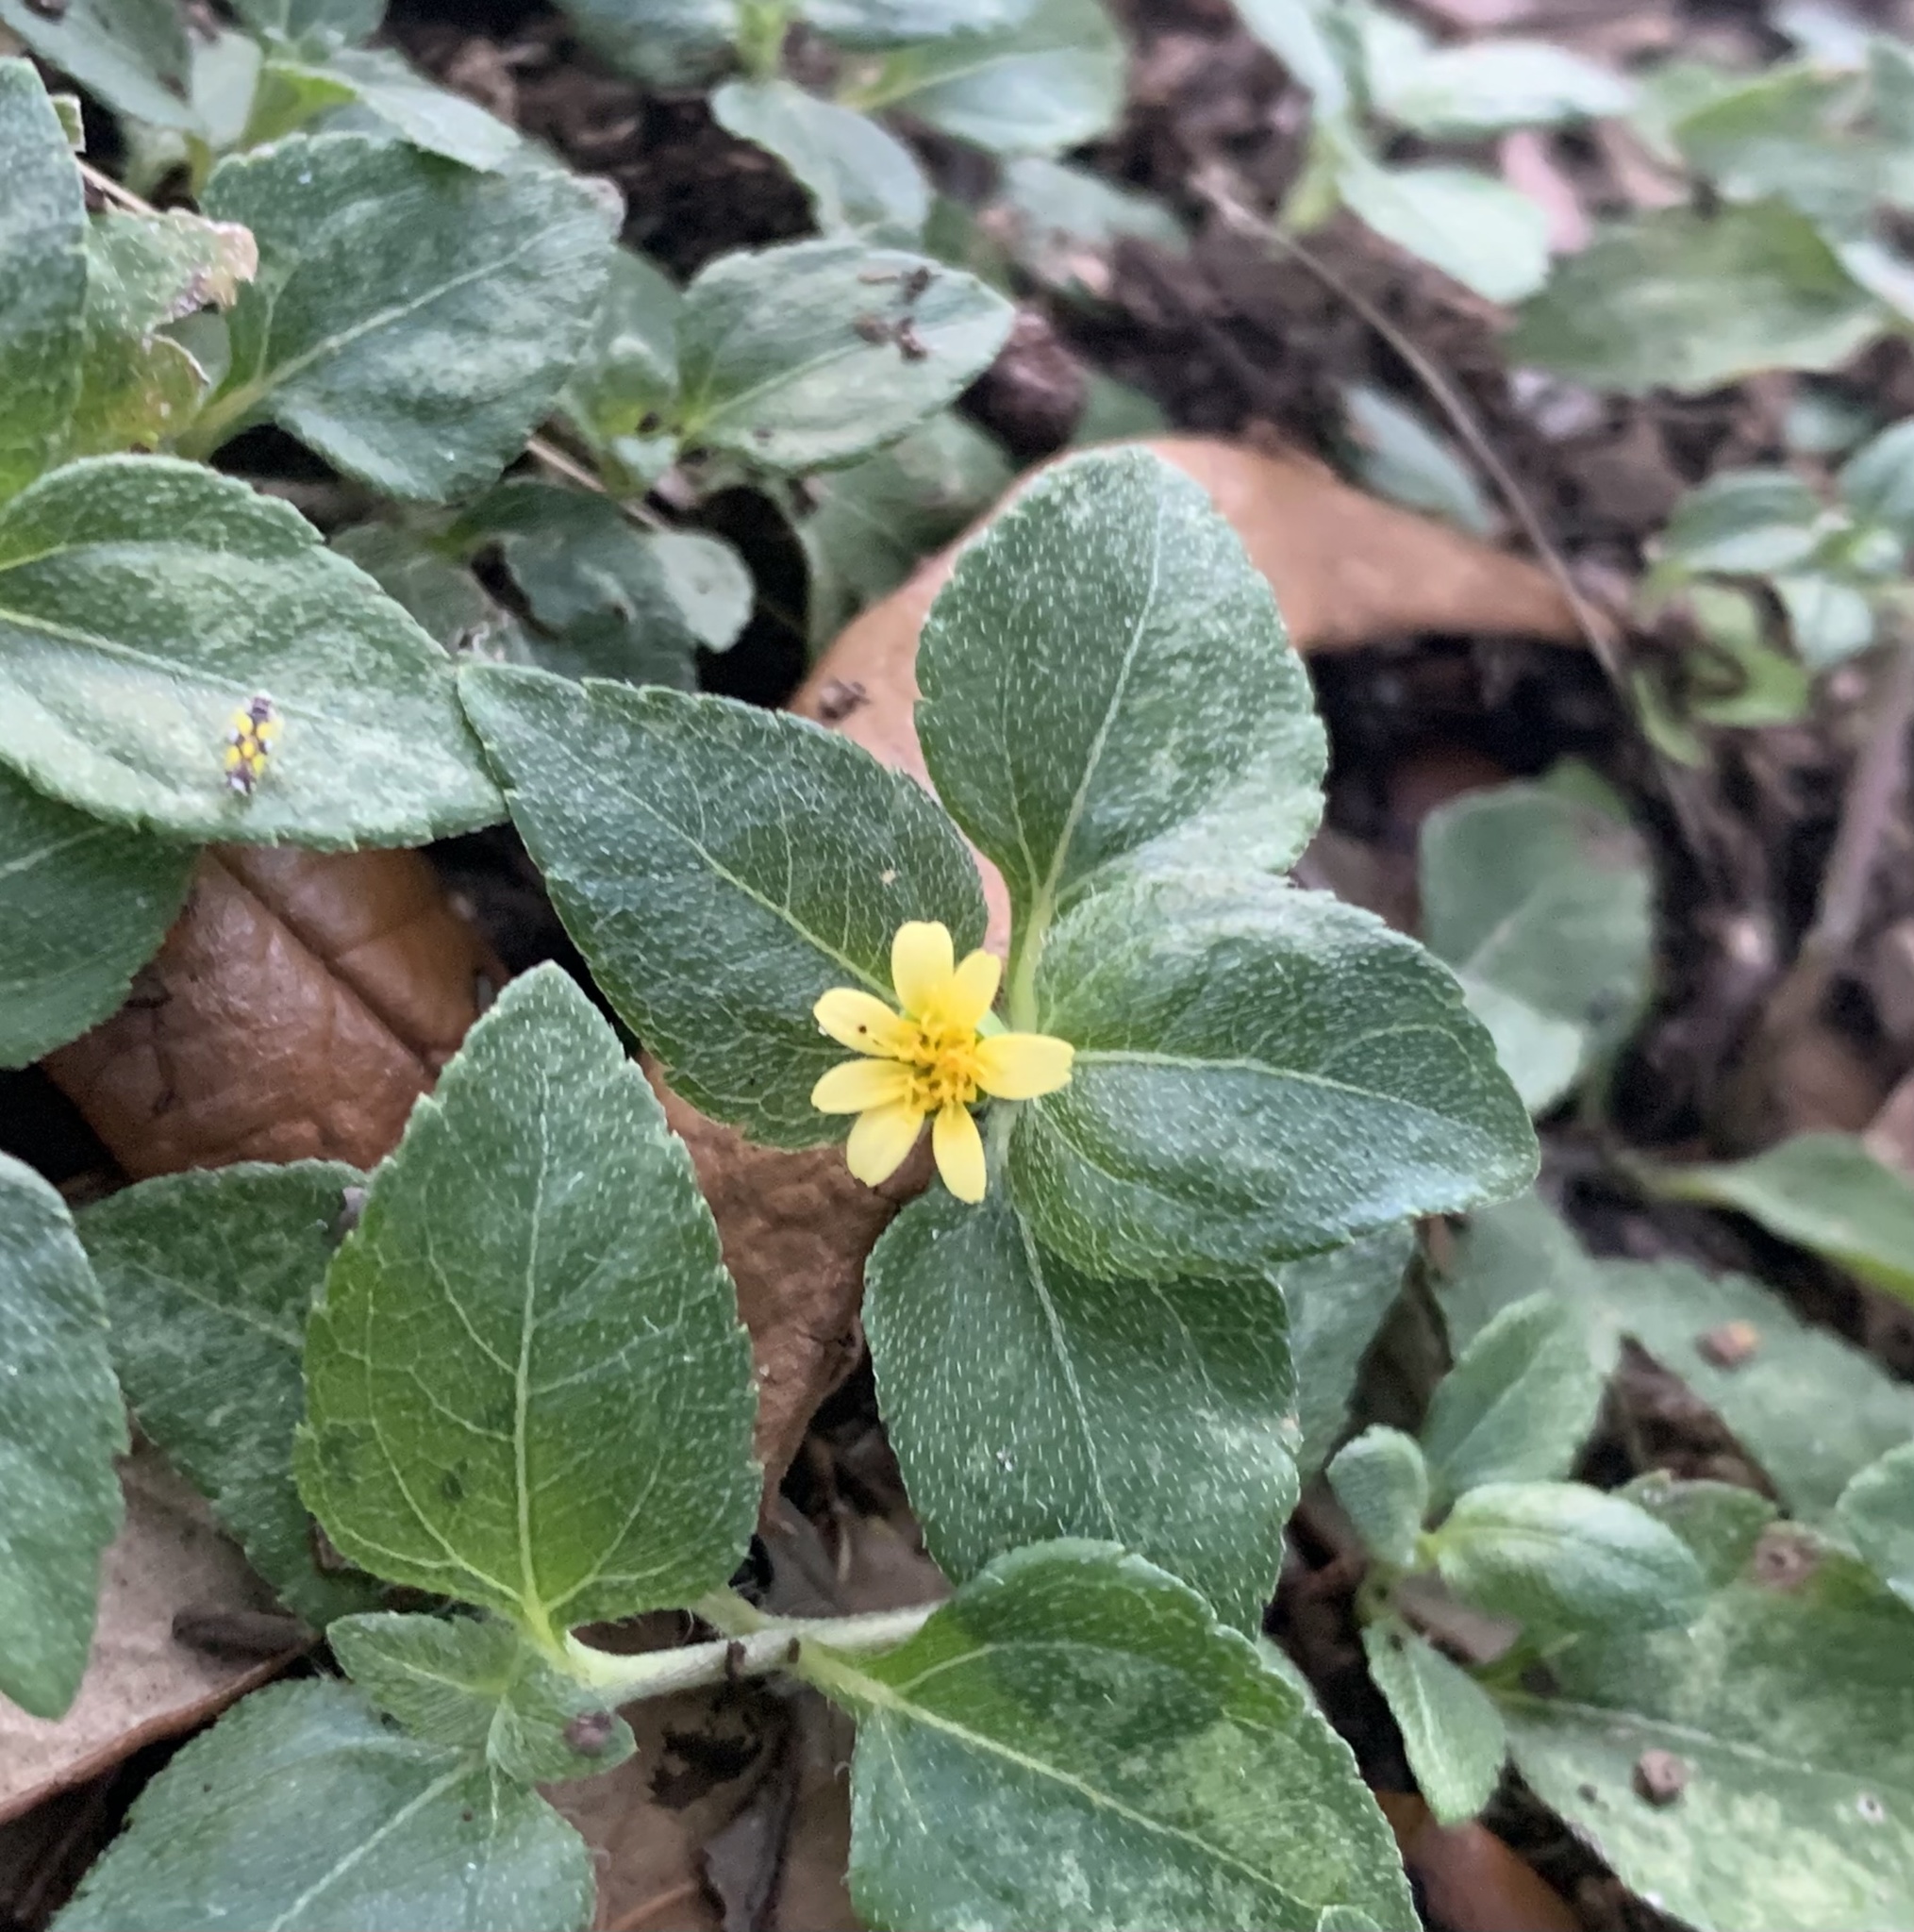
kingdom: Plantae
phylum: Tracheophyta
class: Magnoliopsida
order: Asterales
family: Asteraceae
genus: Calyptocarpus
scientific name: Calyptocarpus vialis
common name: Straggler daisy
